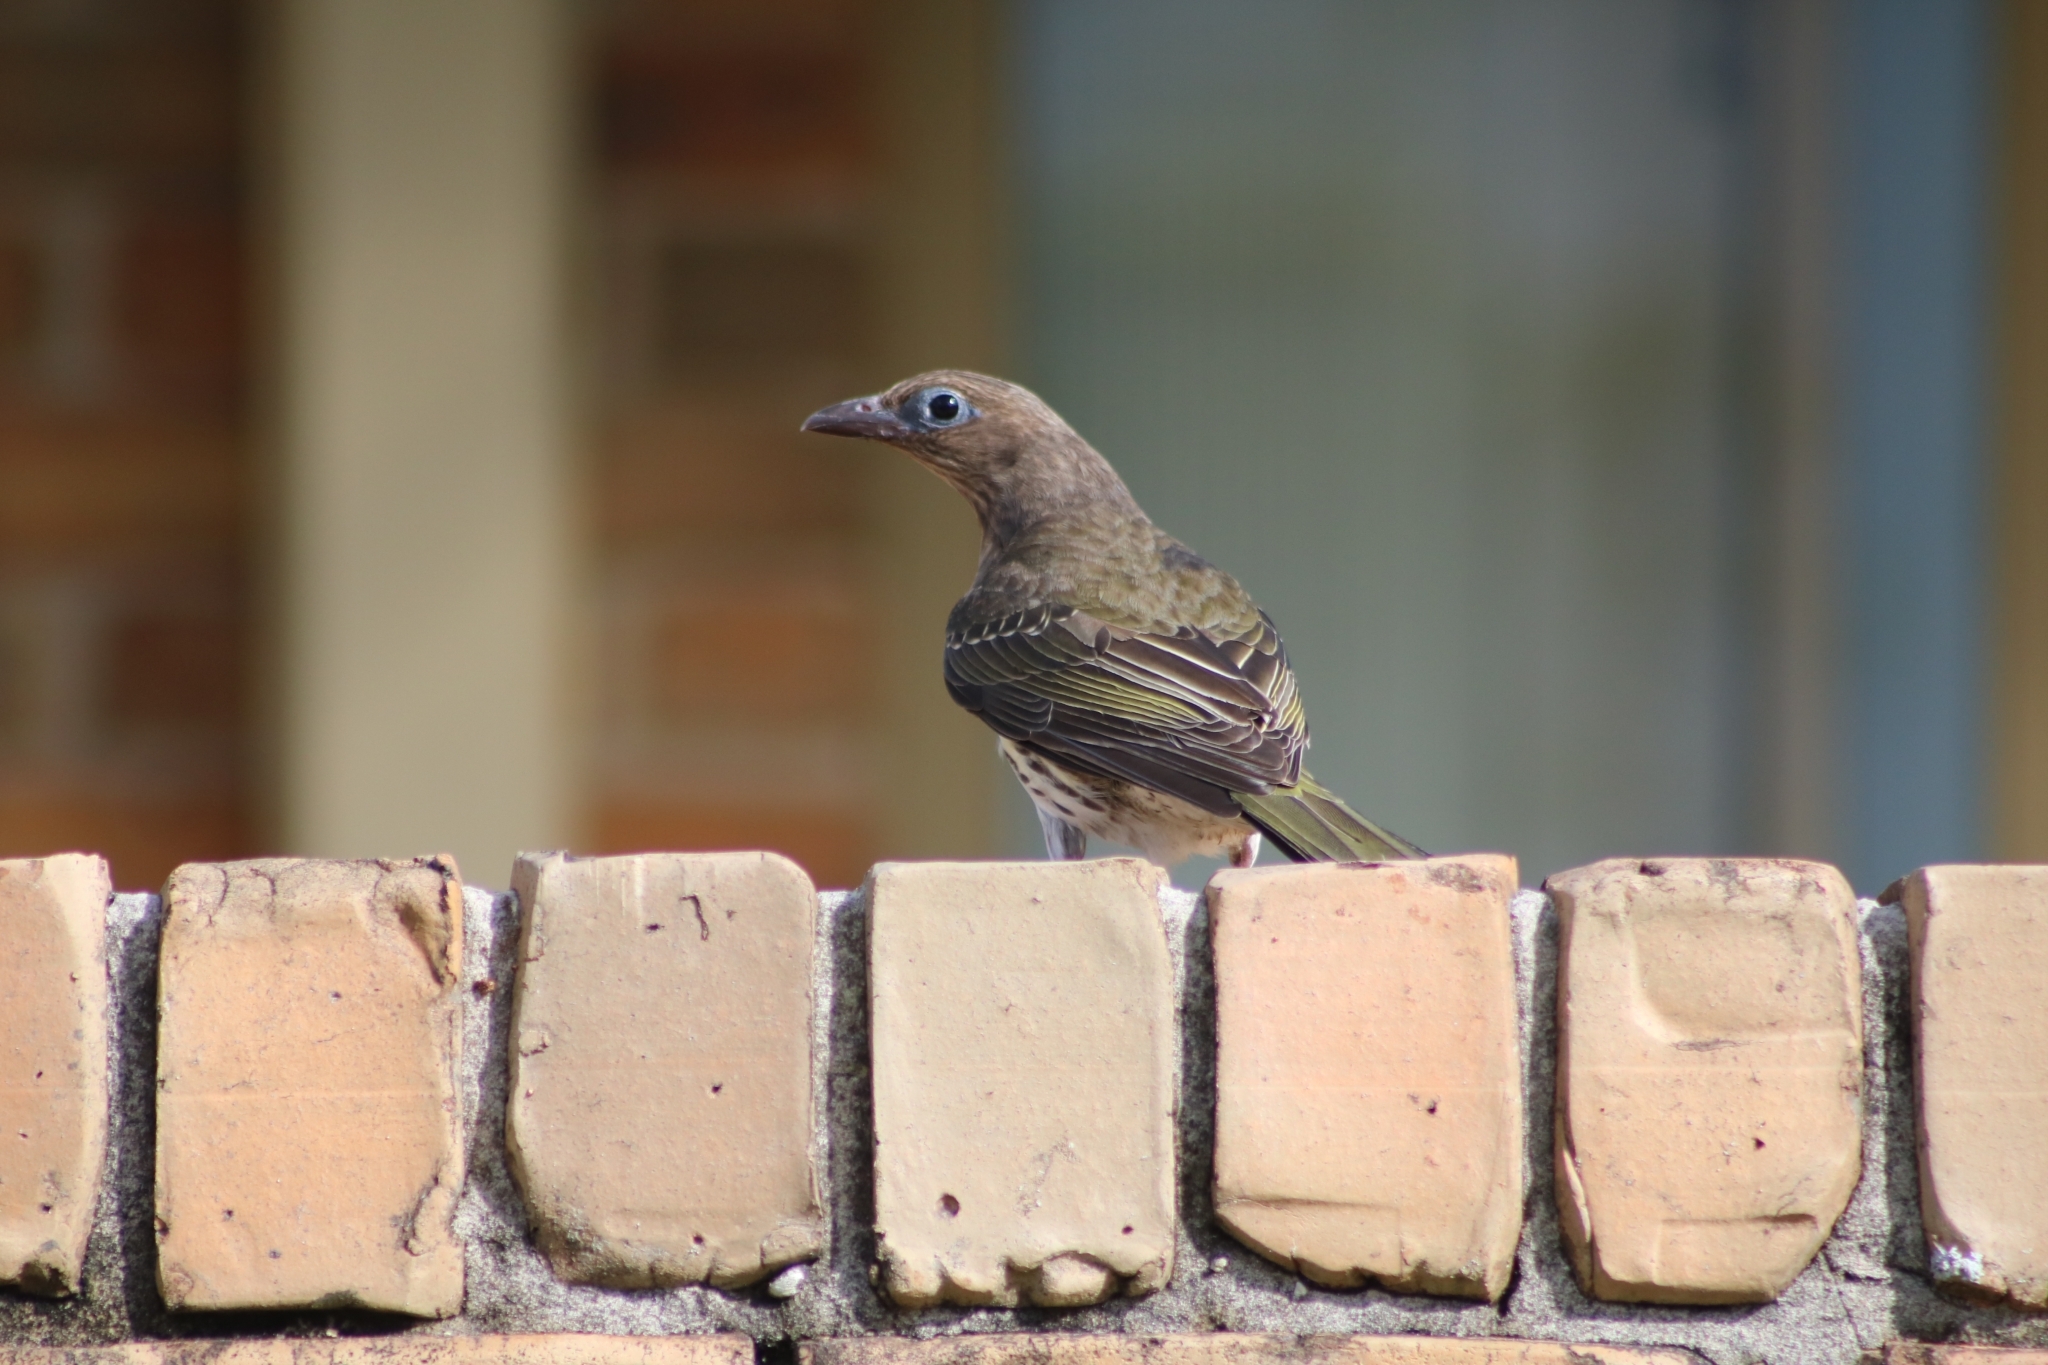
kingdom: Animalia
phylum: Chordata
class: Aves
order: Passeriformes
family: Oriolidae
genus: Sphecotheres
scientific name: Sphecotheres vieilloti
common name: Australasian figbird
